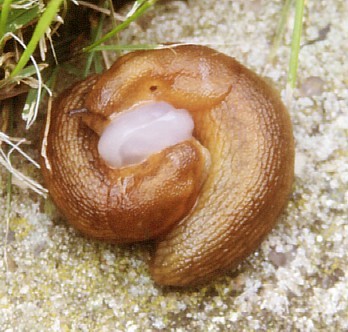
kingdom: Animalia
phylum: Mollusca
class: Gastropoda
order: Stylommatophora
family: Arionidae
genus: Arion
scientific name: Arion rufus
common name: Chocolate arion
